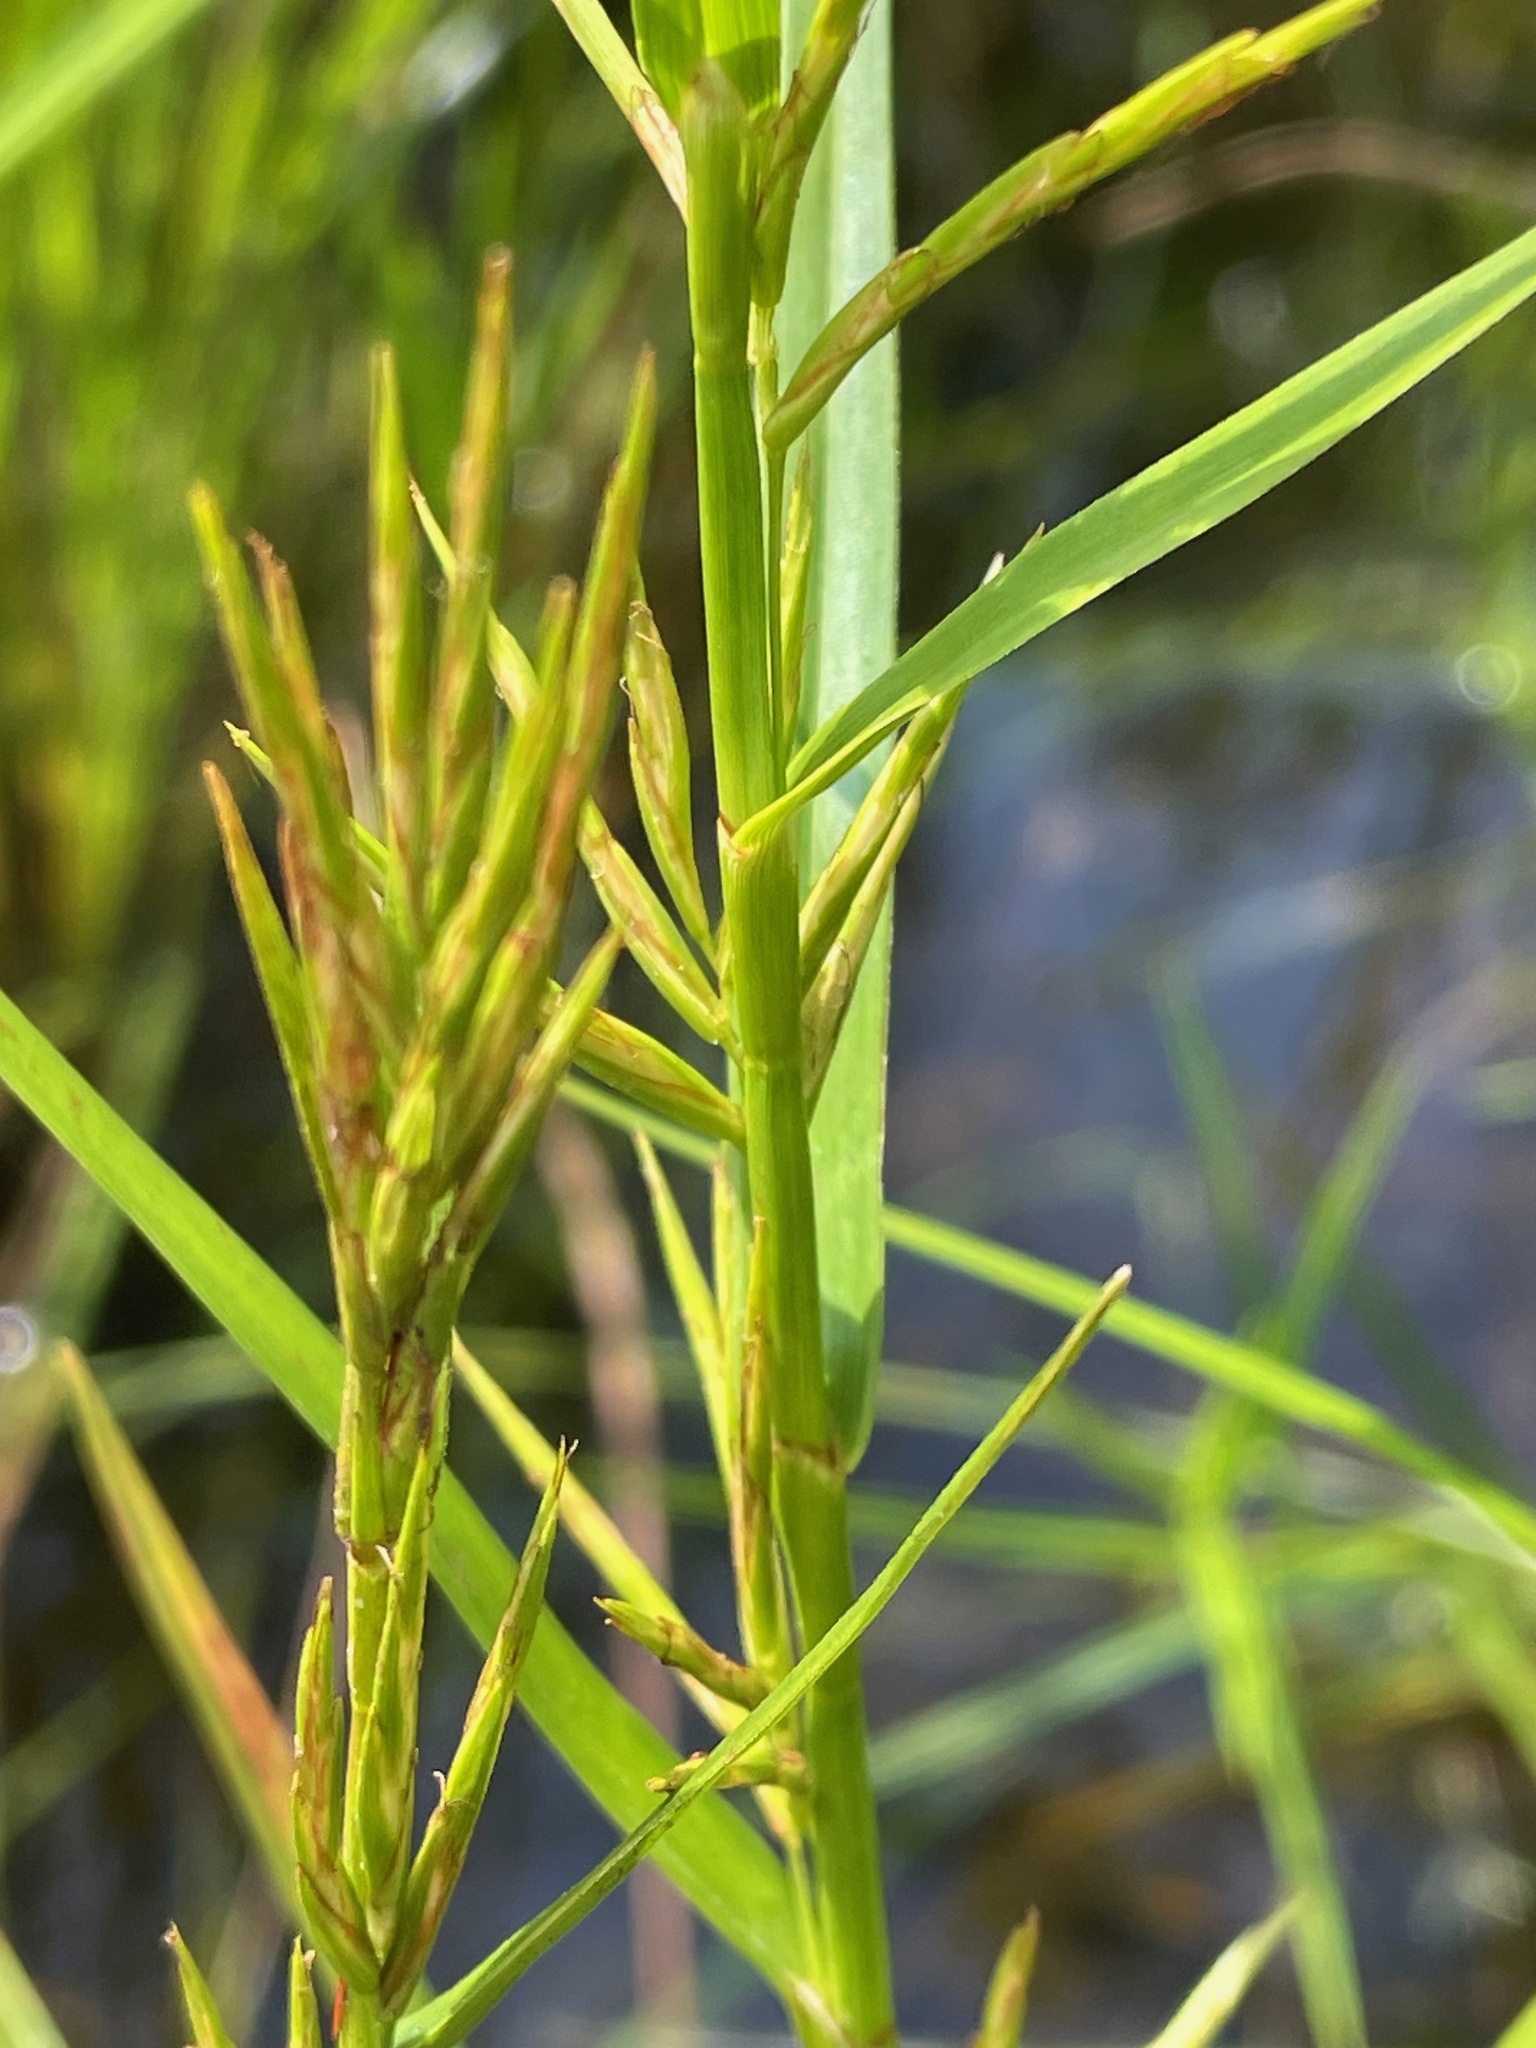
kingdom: Plantae
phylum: Tracheophyta
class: Liliopsida
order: Poales
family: Cyperaceae
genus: Dulichium
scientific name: Dulichium arundinaceum
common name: Three-way sedge
